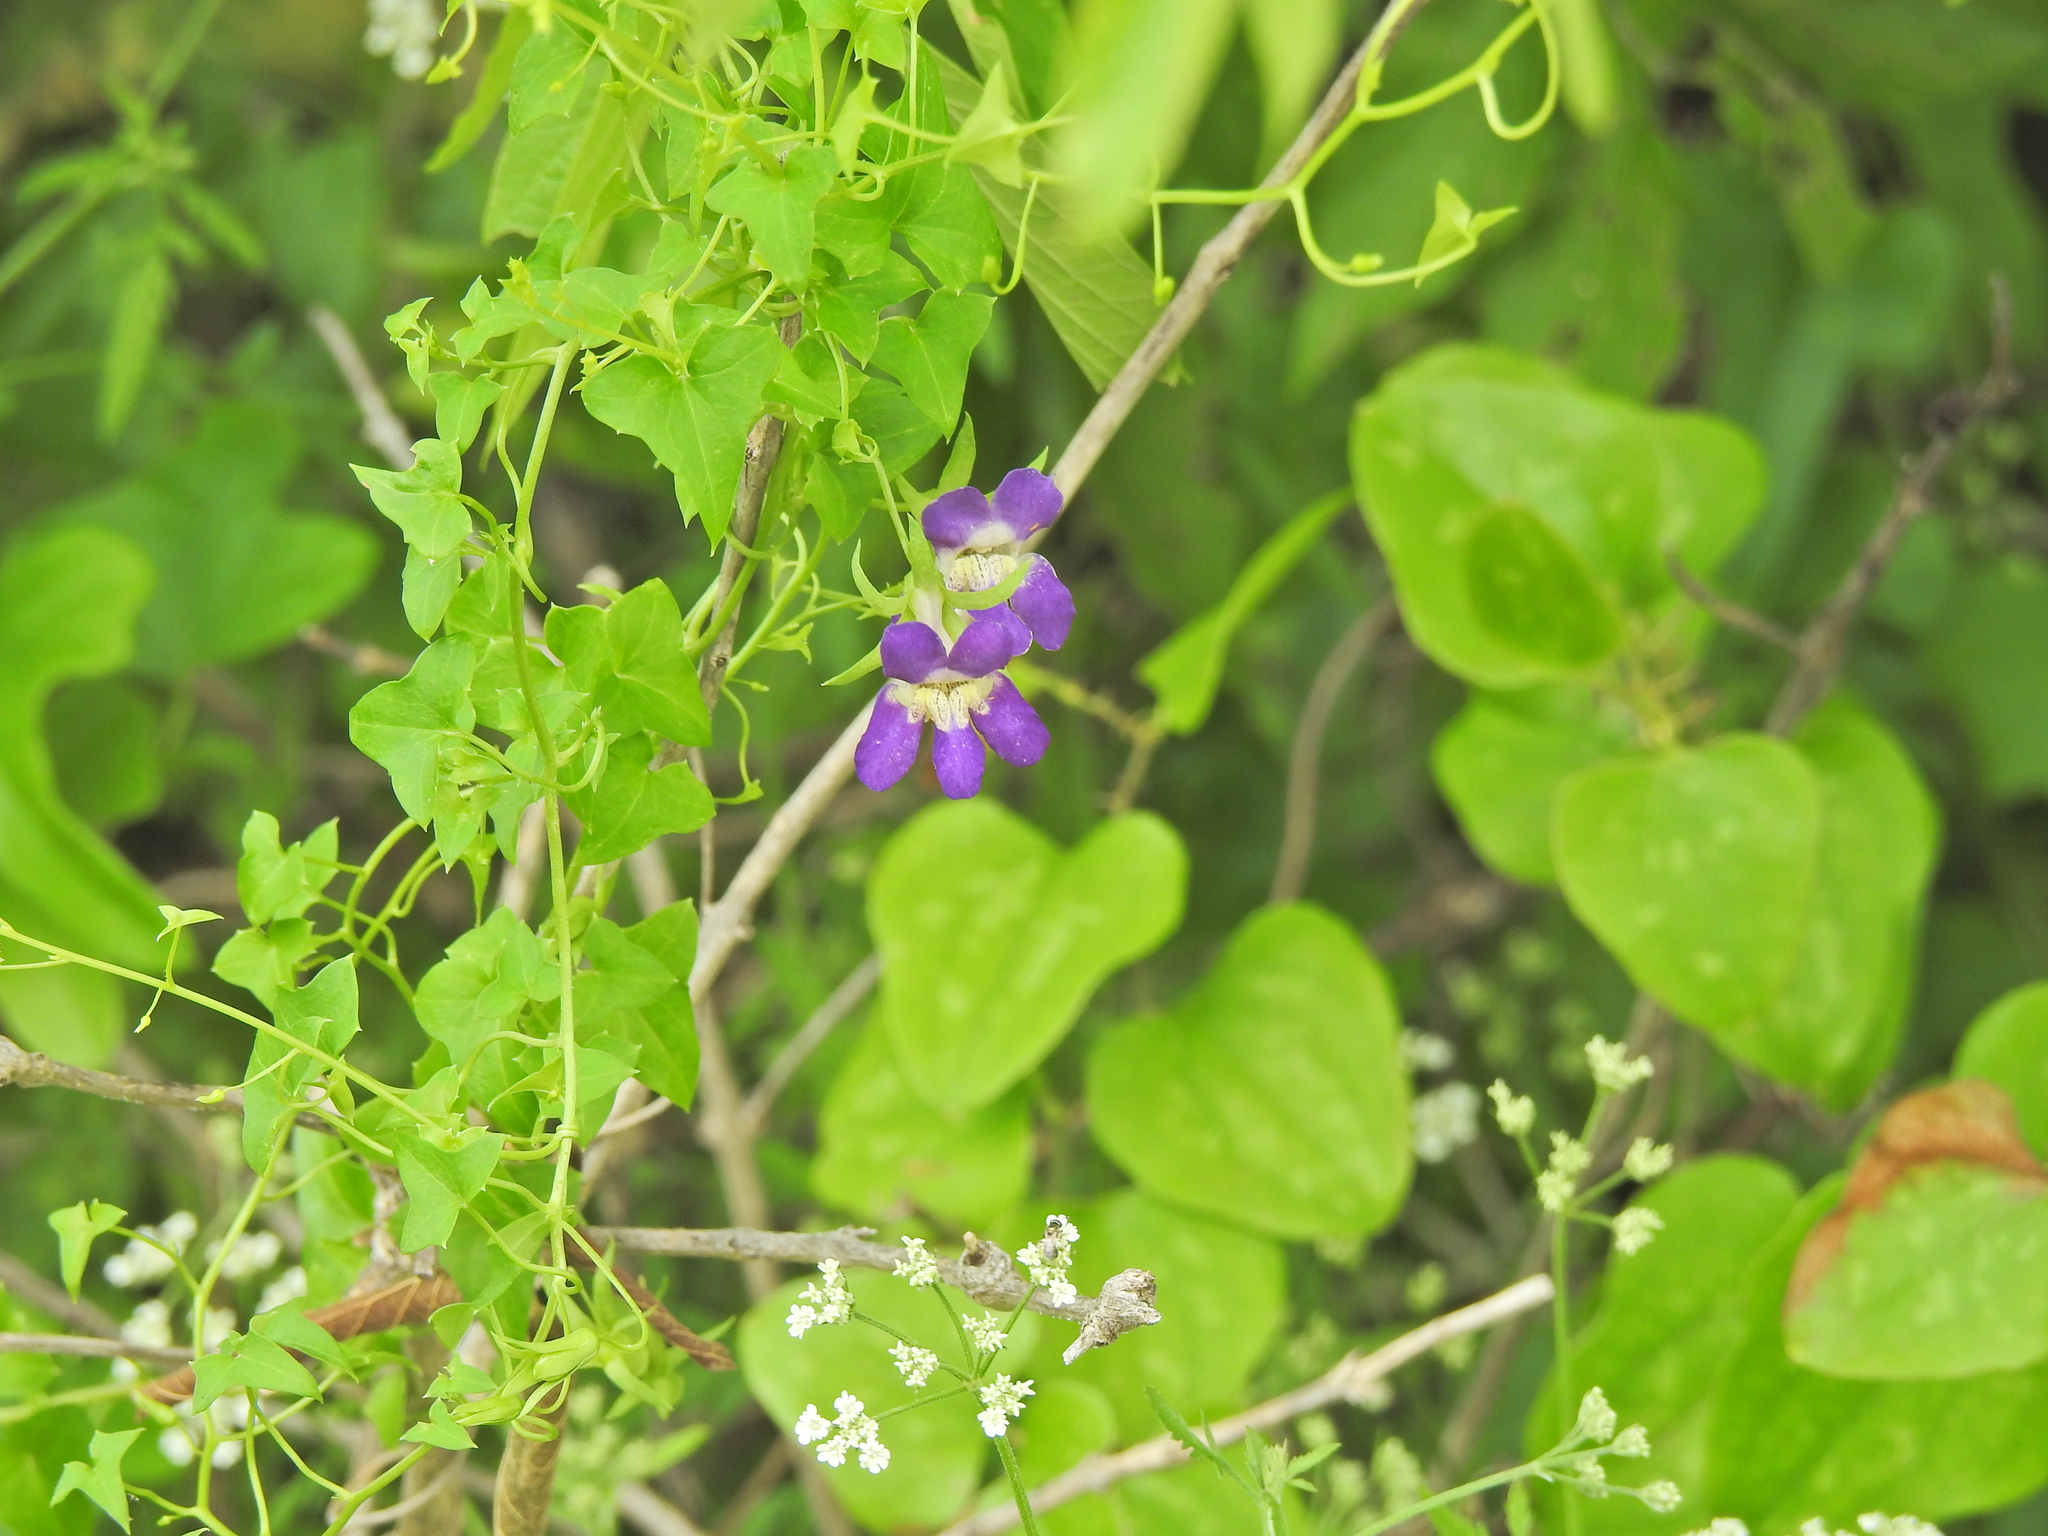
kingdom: Plantae
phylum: Tracheophyta
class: Magnoliopsida
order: Lamiales
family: Plantaginaceae
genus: Maurandella
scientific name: Maurandella antirrhiniflora
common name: Violet twining-snapdragon
